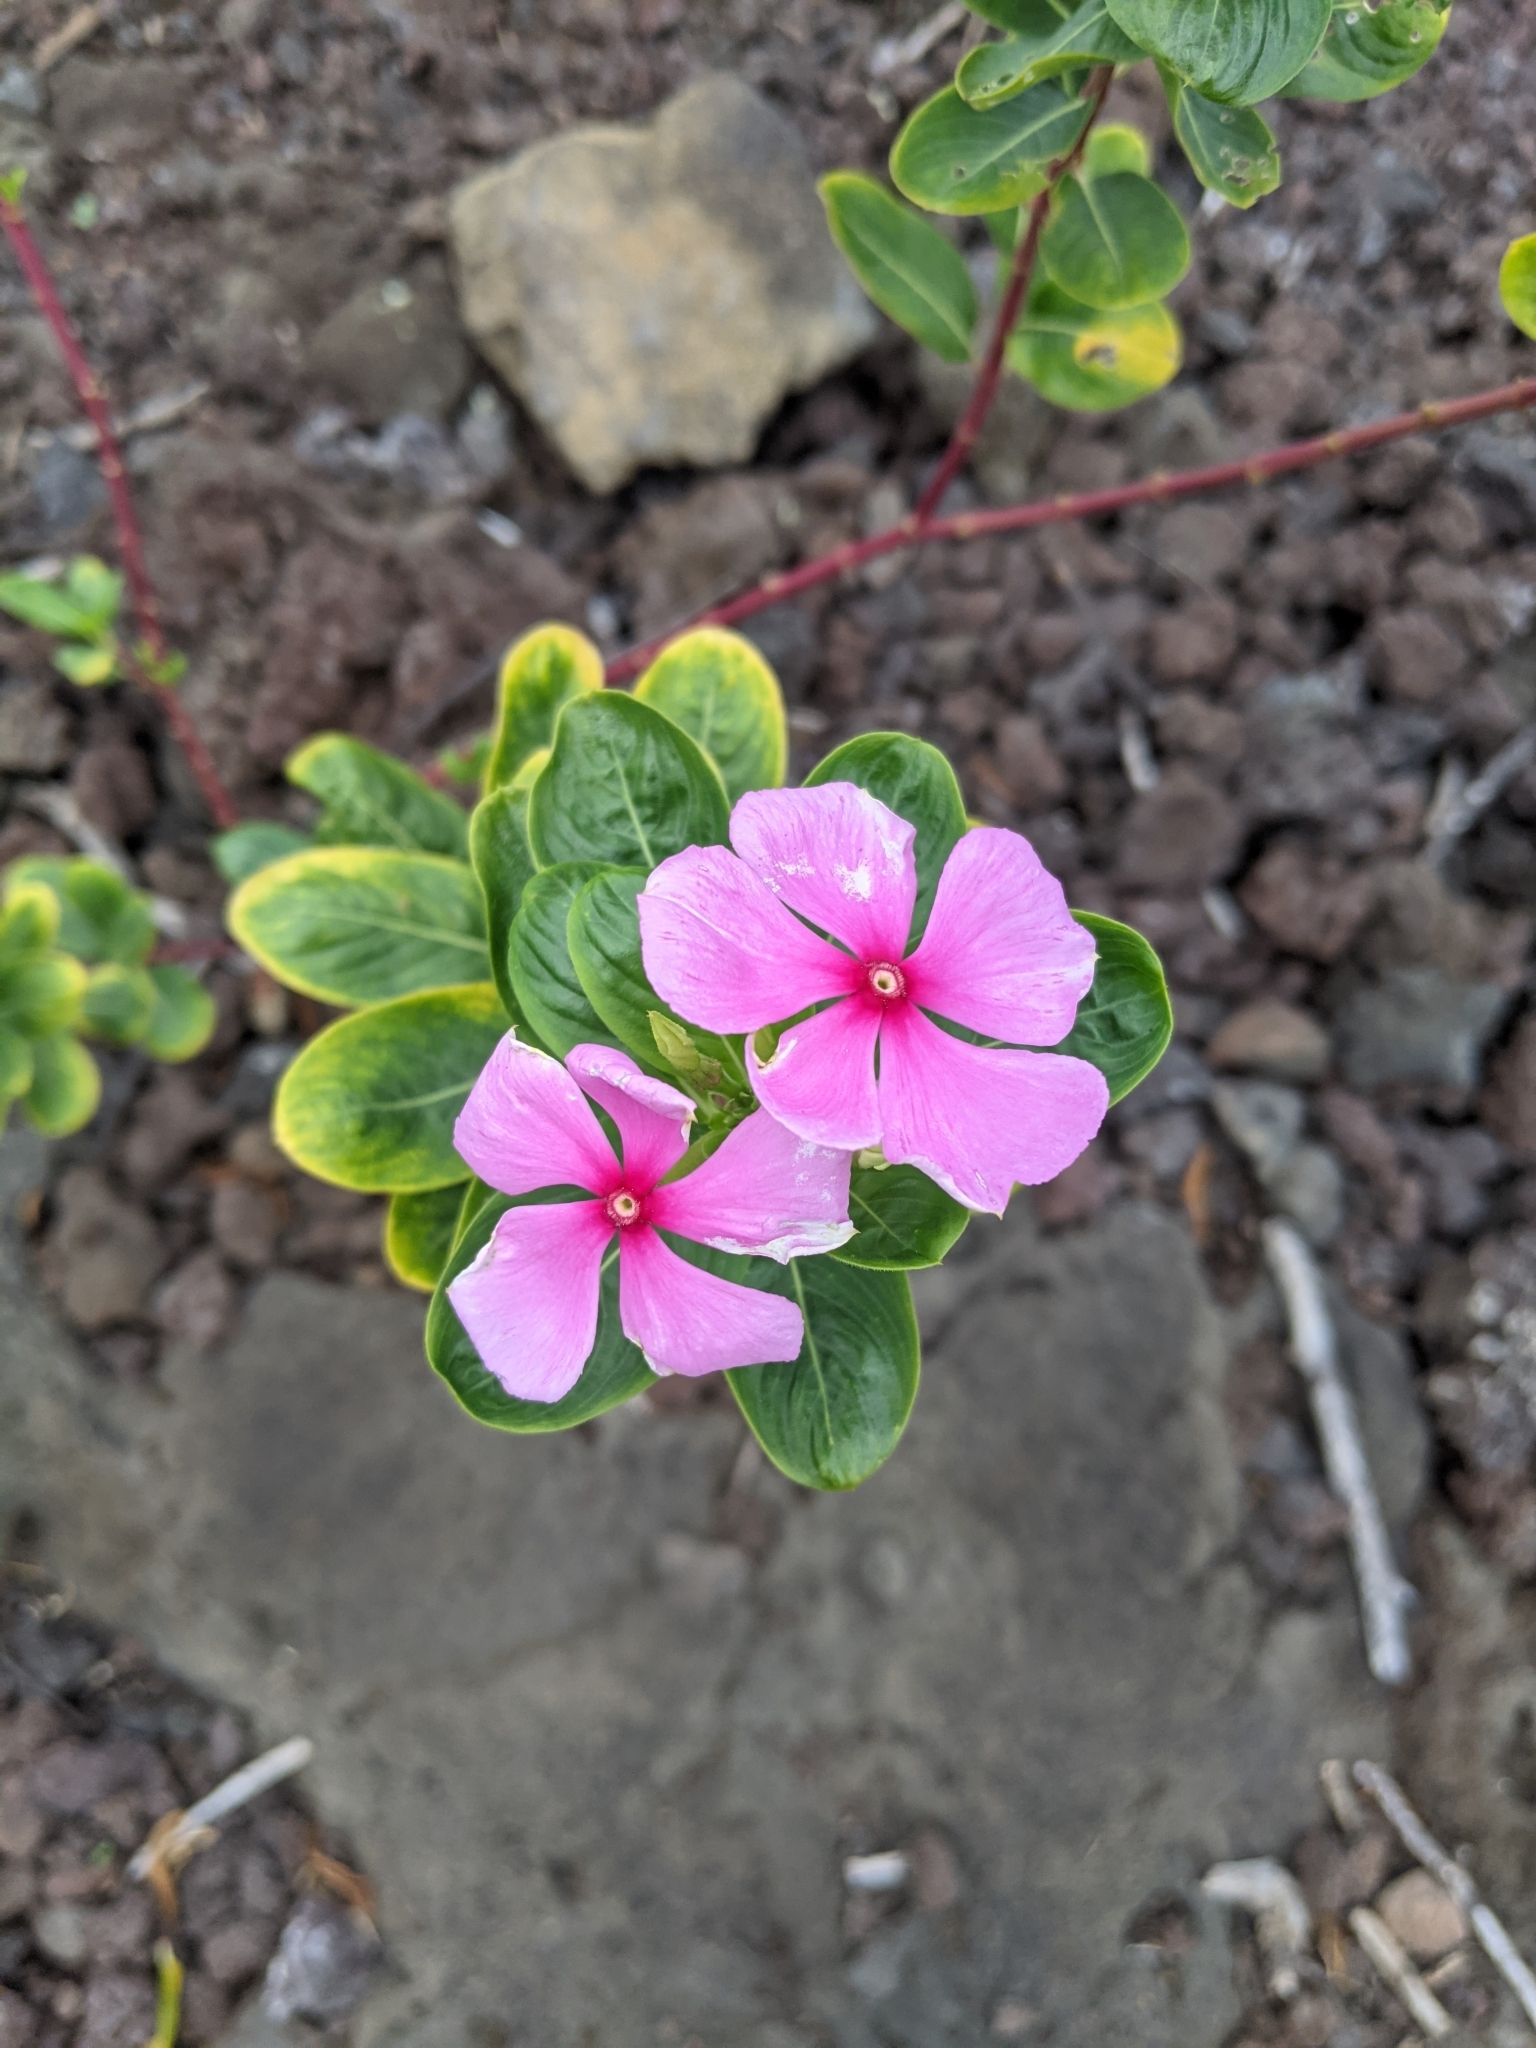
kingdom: Plantae
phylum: Tracheophyta
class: Magnoliopsida
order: Gentianales
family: Apocynaceae
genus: Catharanthus
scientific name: Catharanthus roseus
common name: Madagascar periwinkle
